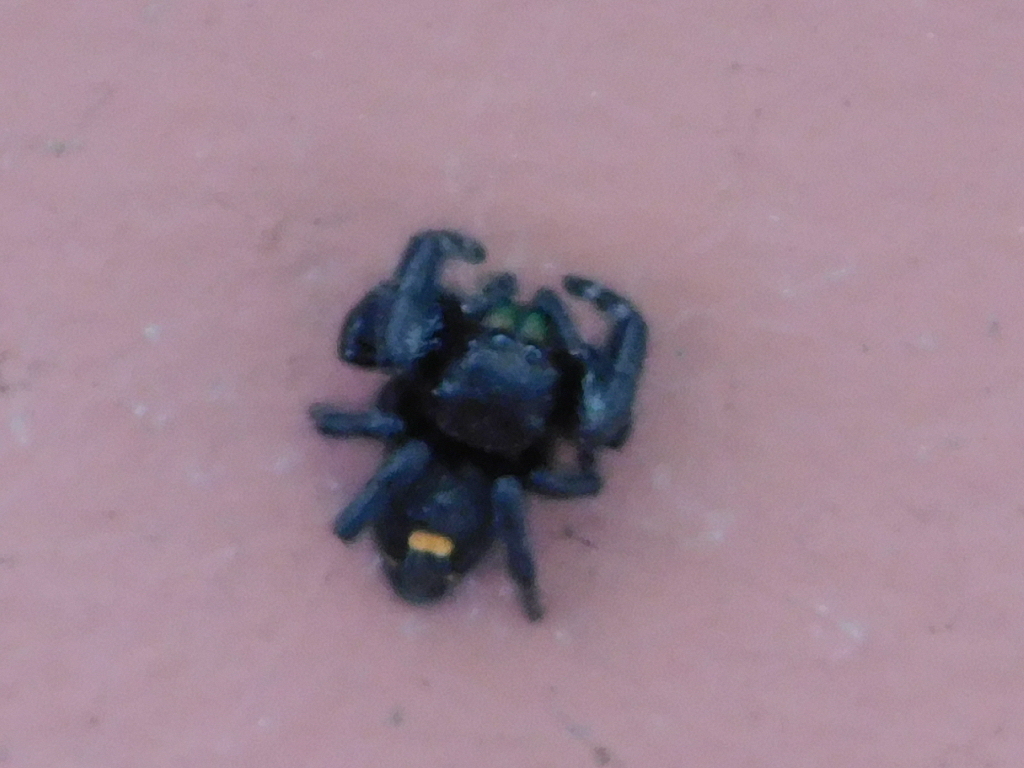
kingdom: Animalia
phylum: Arthropoda
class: Arachnida
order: Araneae
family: Salticidae
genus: Phidippus
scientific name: Phidippus audax
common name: Bold jumper
